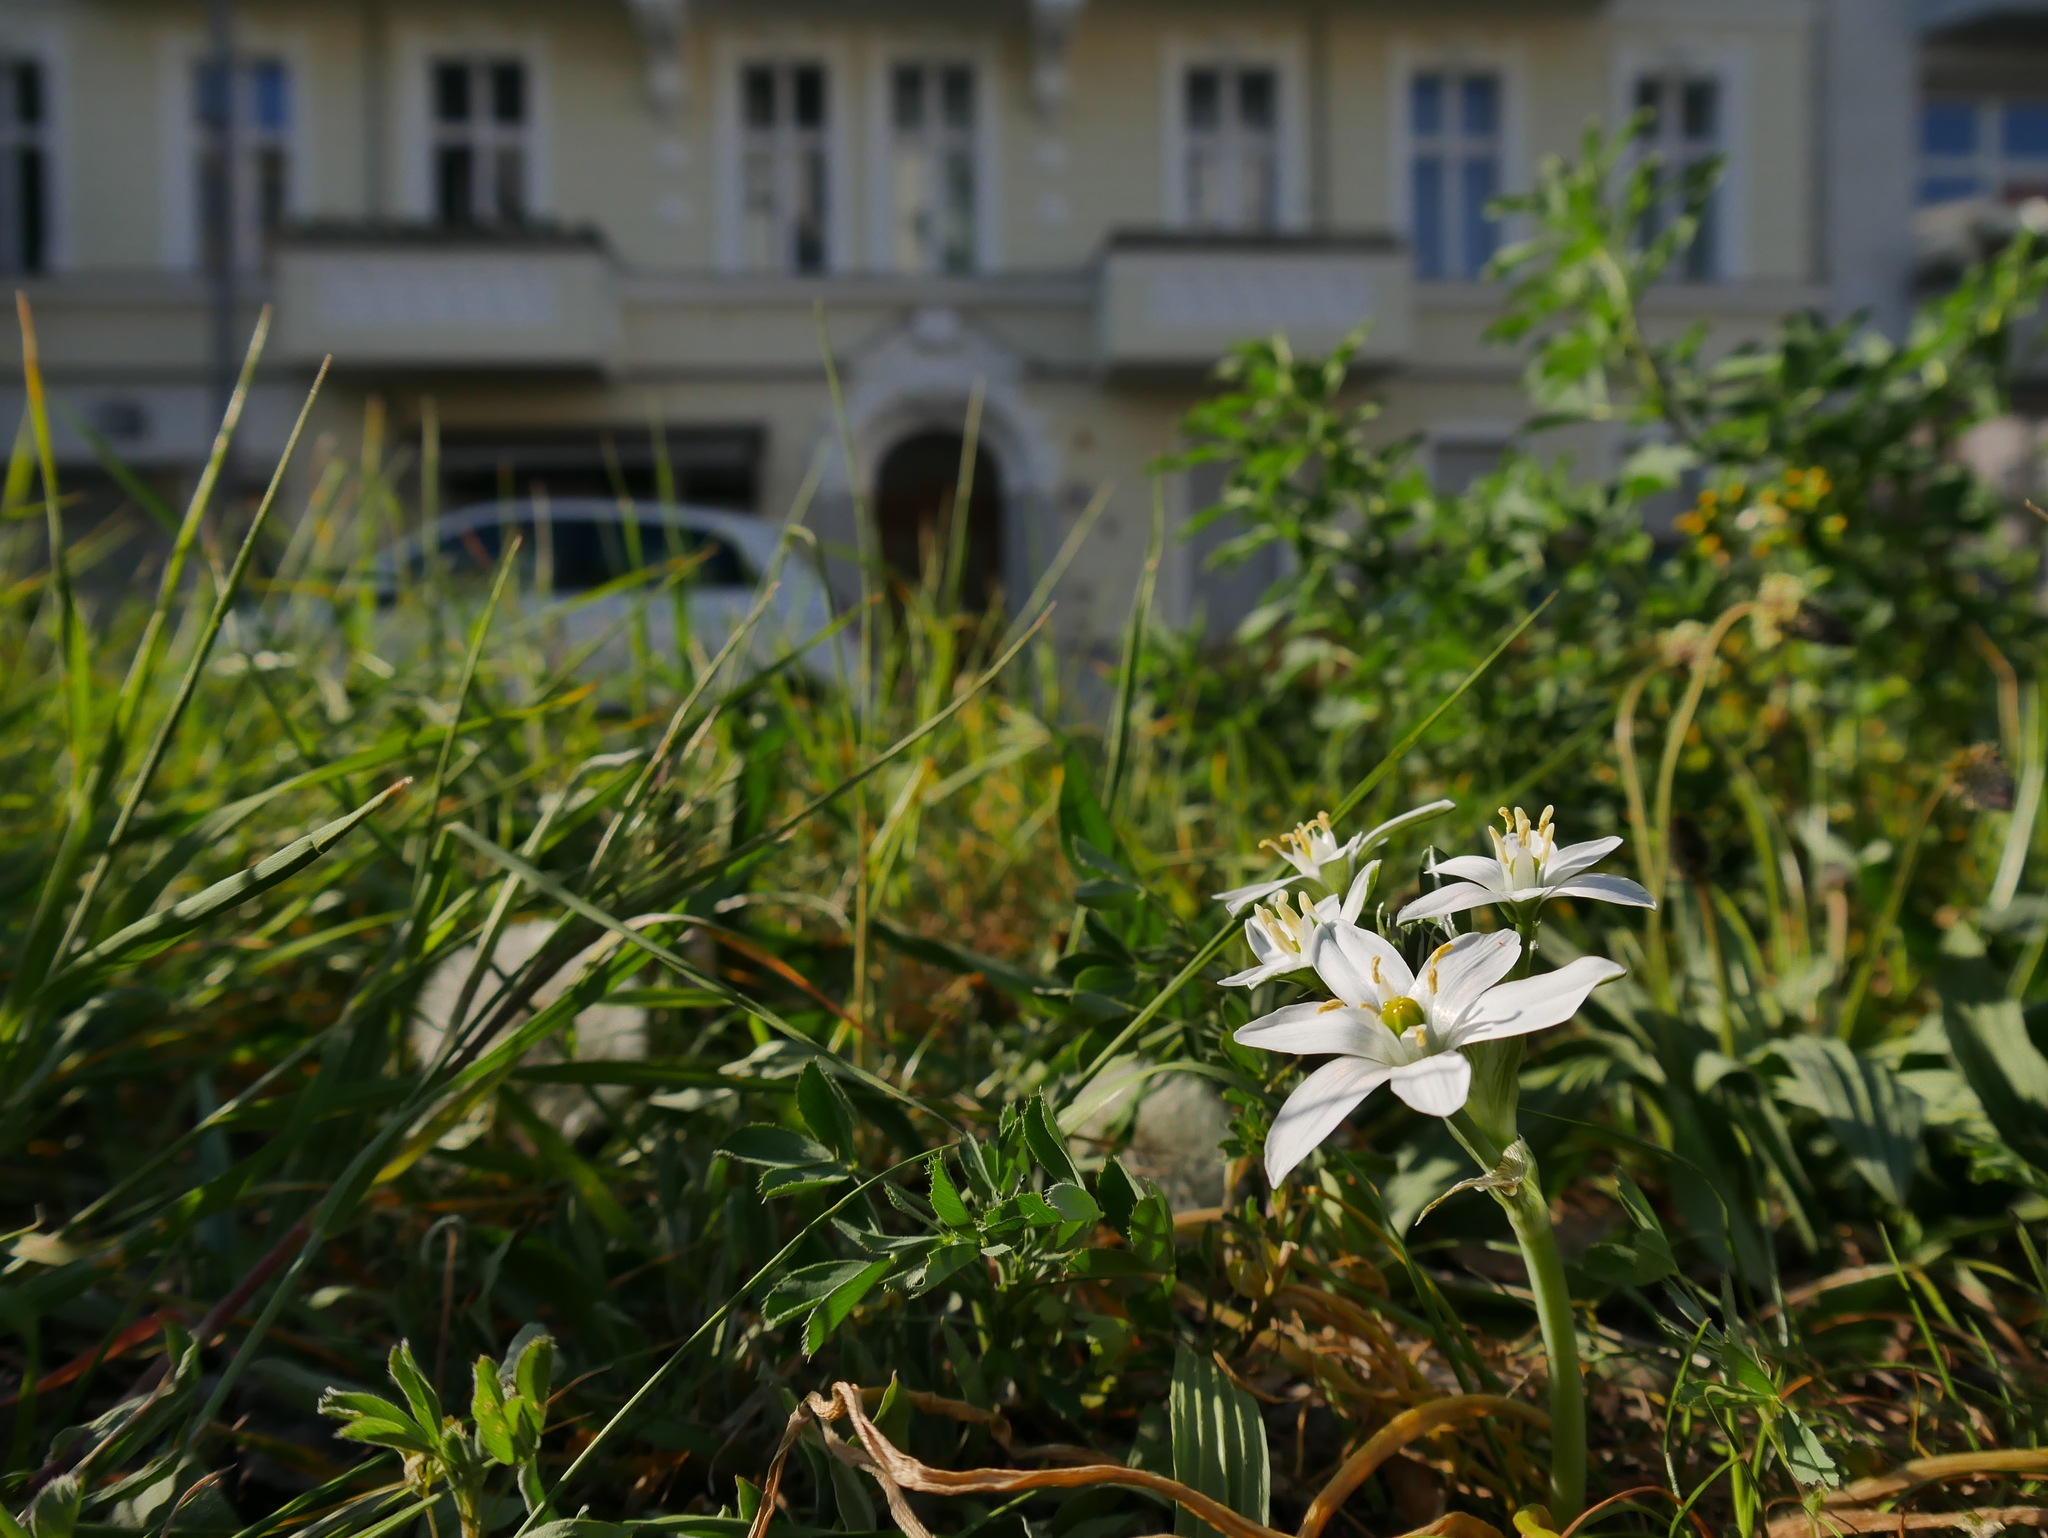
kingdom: Plantae
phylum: Tracheophyta
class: Liliopsida
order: Asparagales
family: Asparagaceae
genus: Ornithogalum
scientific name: Ornithogalum umbellatum
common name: Garden star-of-bethlehem
